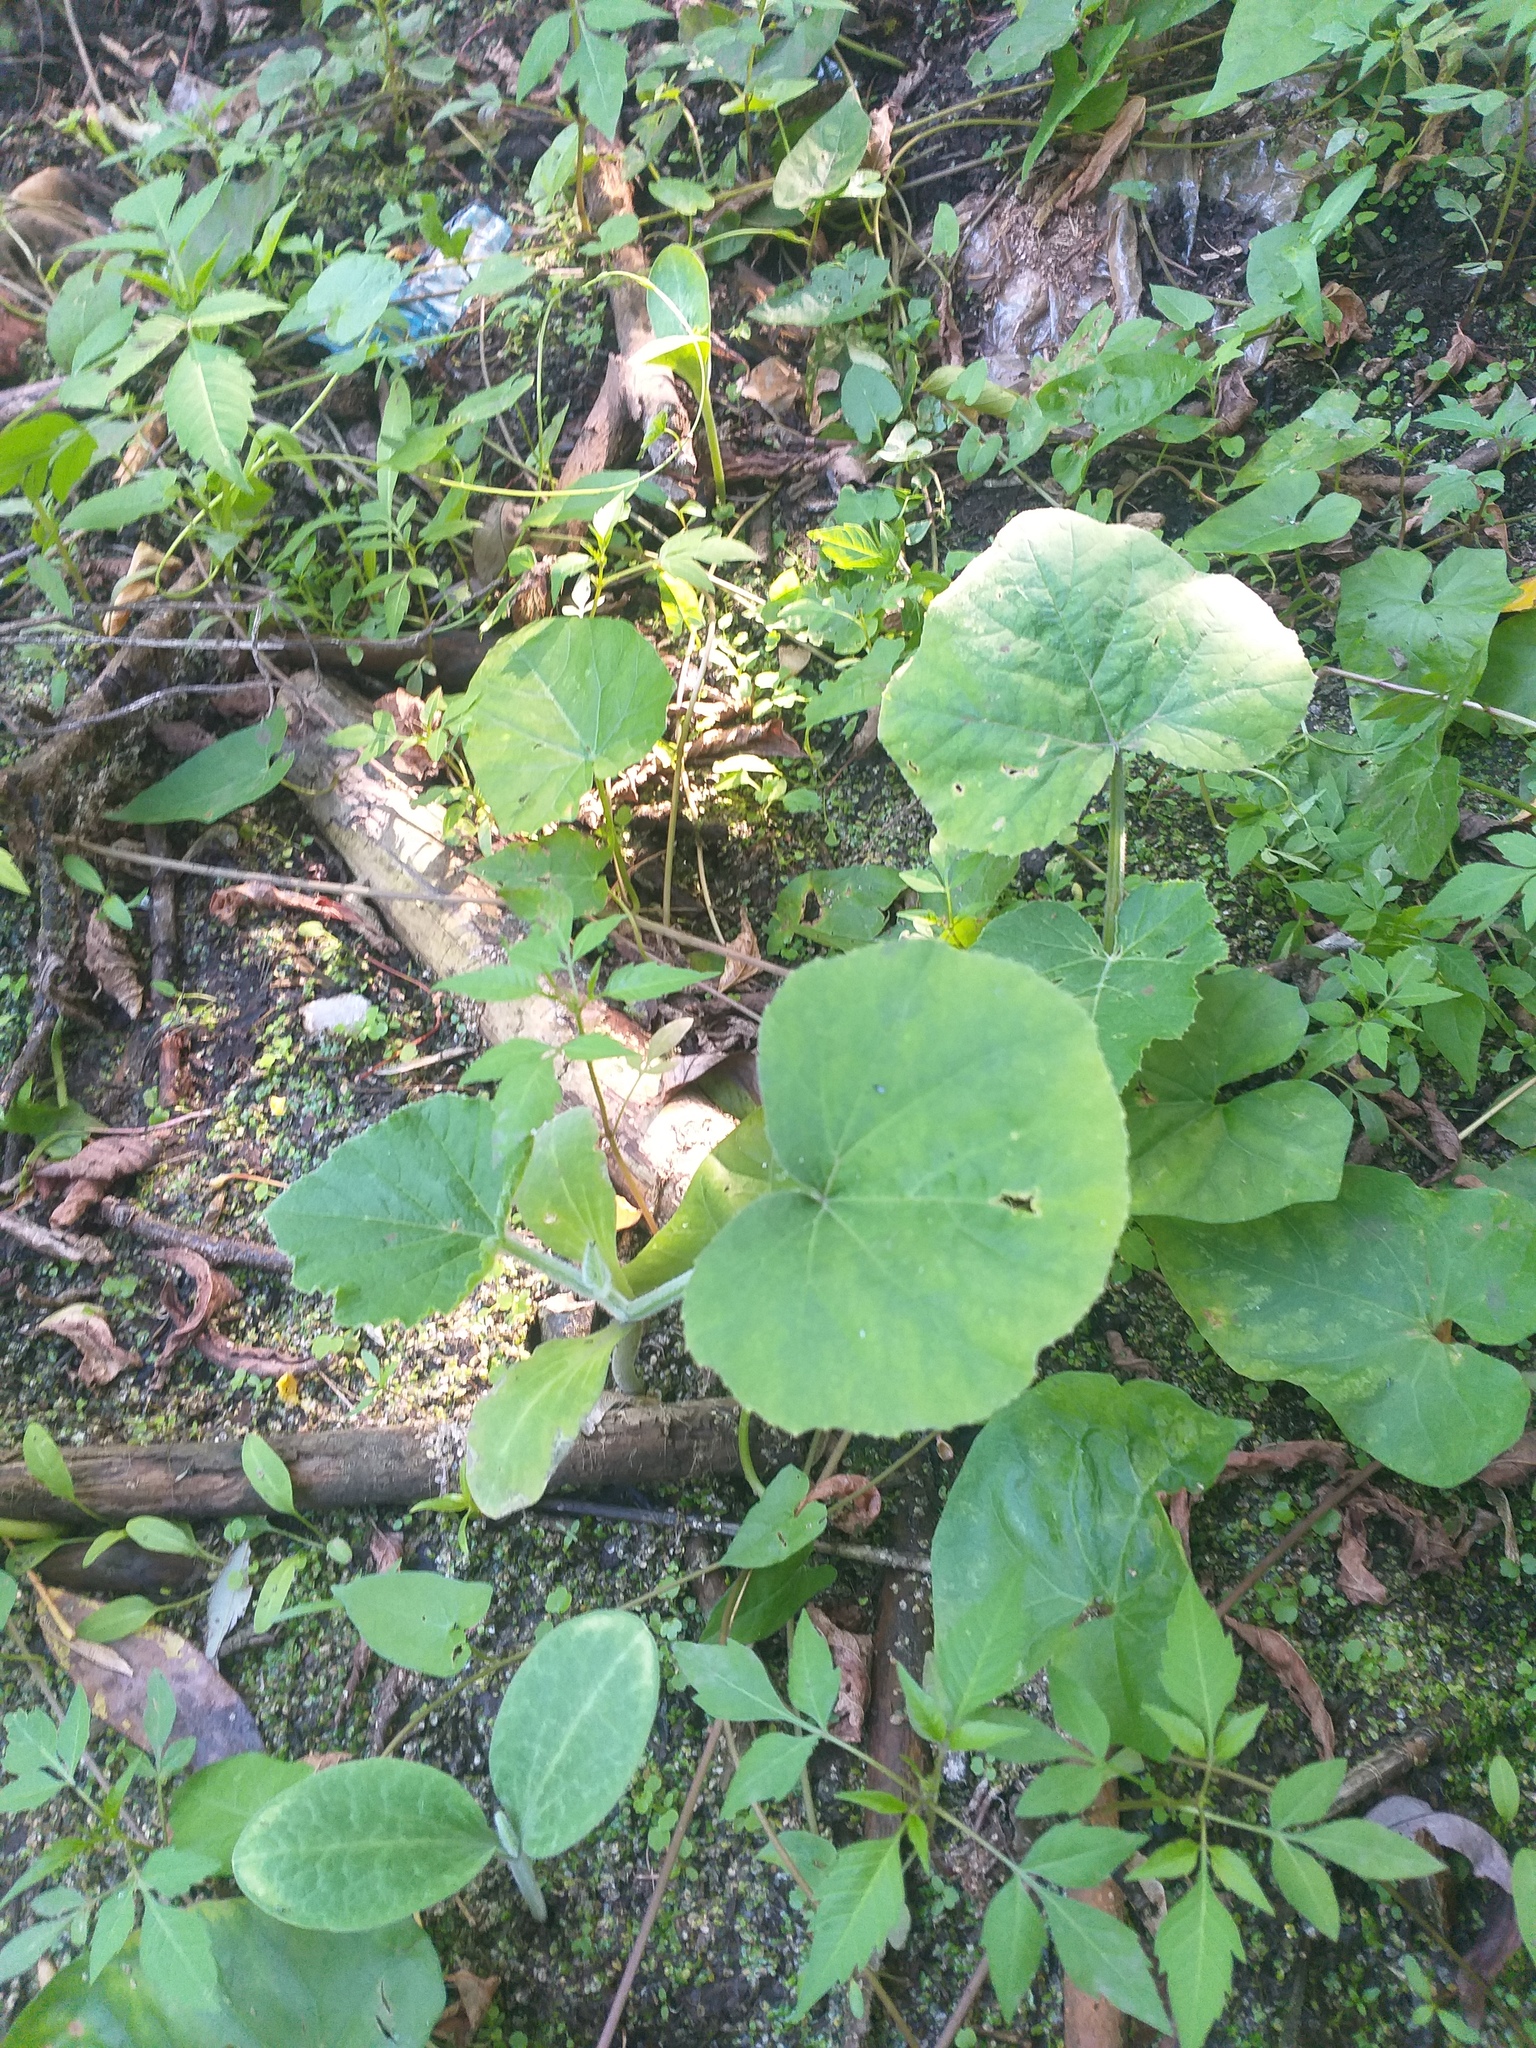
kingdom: Plantae
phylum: Tracheophyta
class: Magnoliopsida
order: Cucurbitales
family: Cucurbitaceae
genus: Cucumis
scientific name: Cucumis melo
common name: Melon
